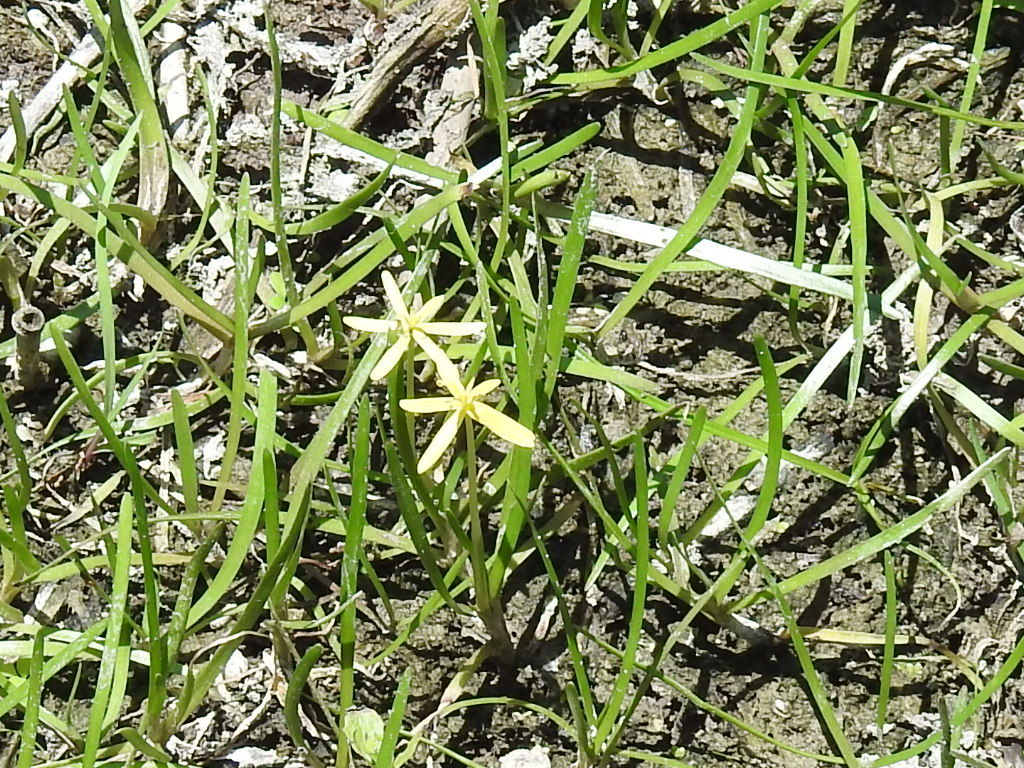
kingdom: Plantae
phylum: Tracheophyta
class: Liliopsida
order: Commelinales
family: Pontederiaceae
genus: Heteranthera
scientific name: Heteranthera dubia
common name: Grass-leaved mud plantain
